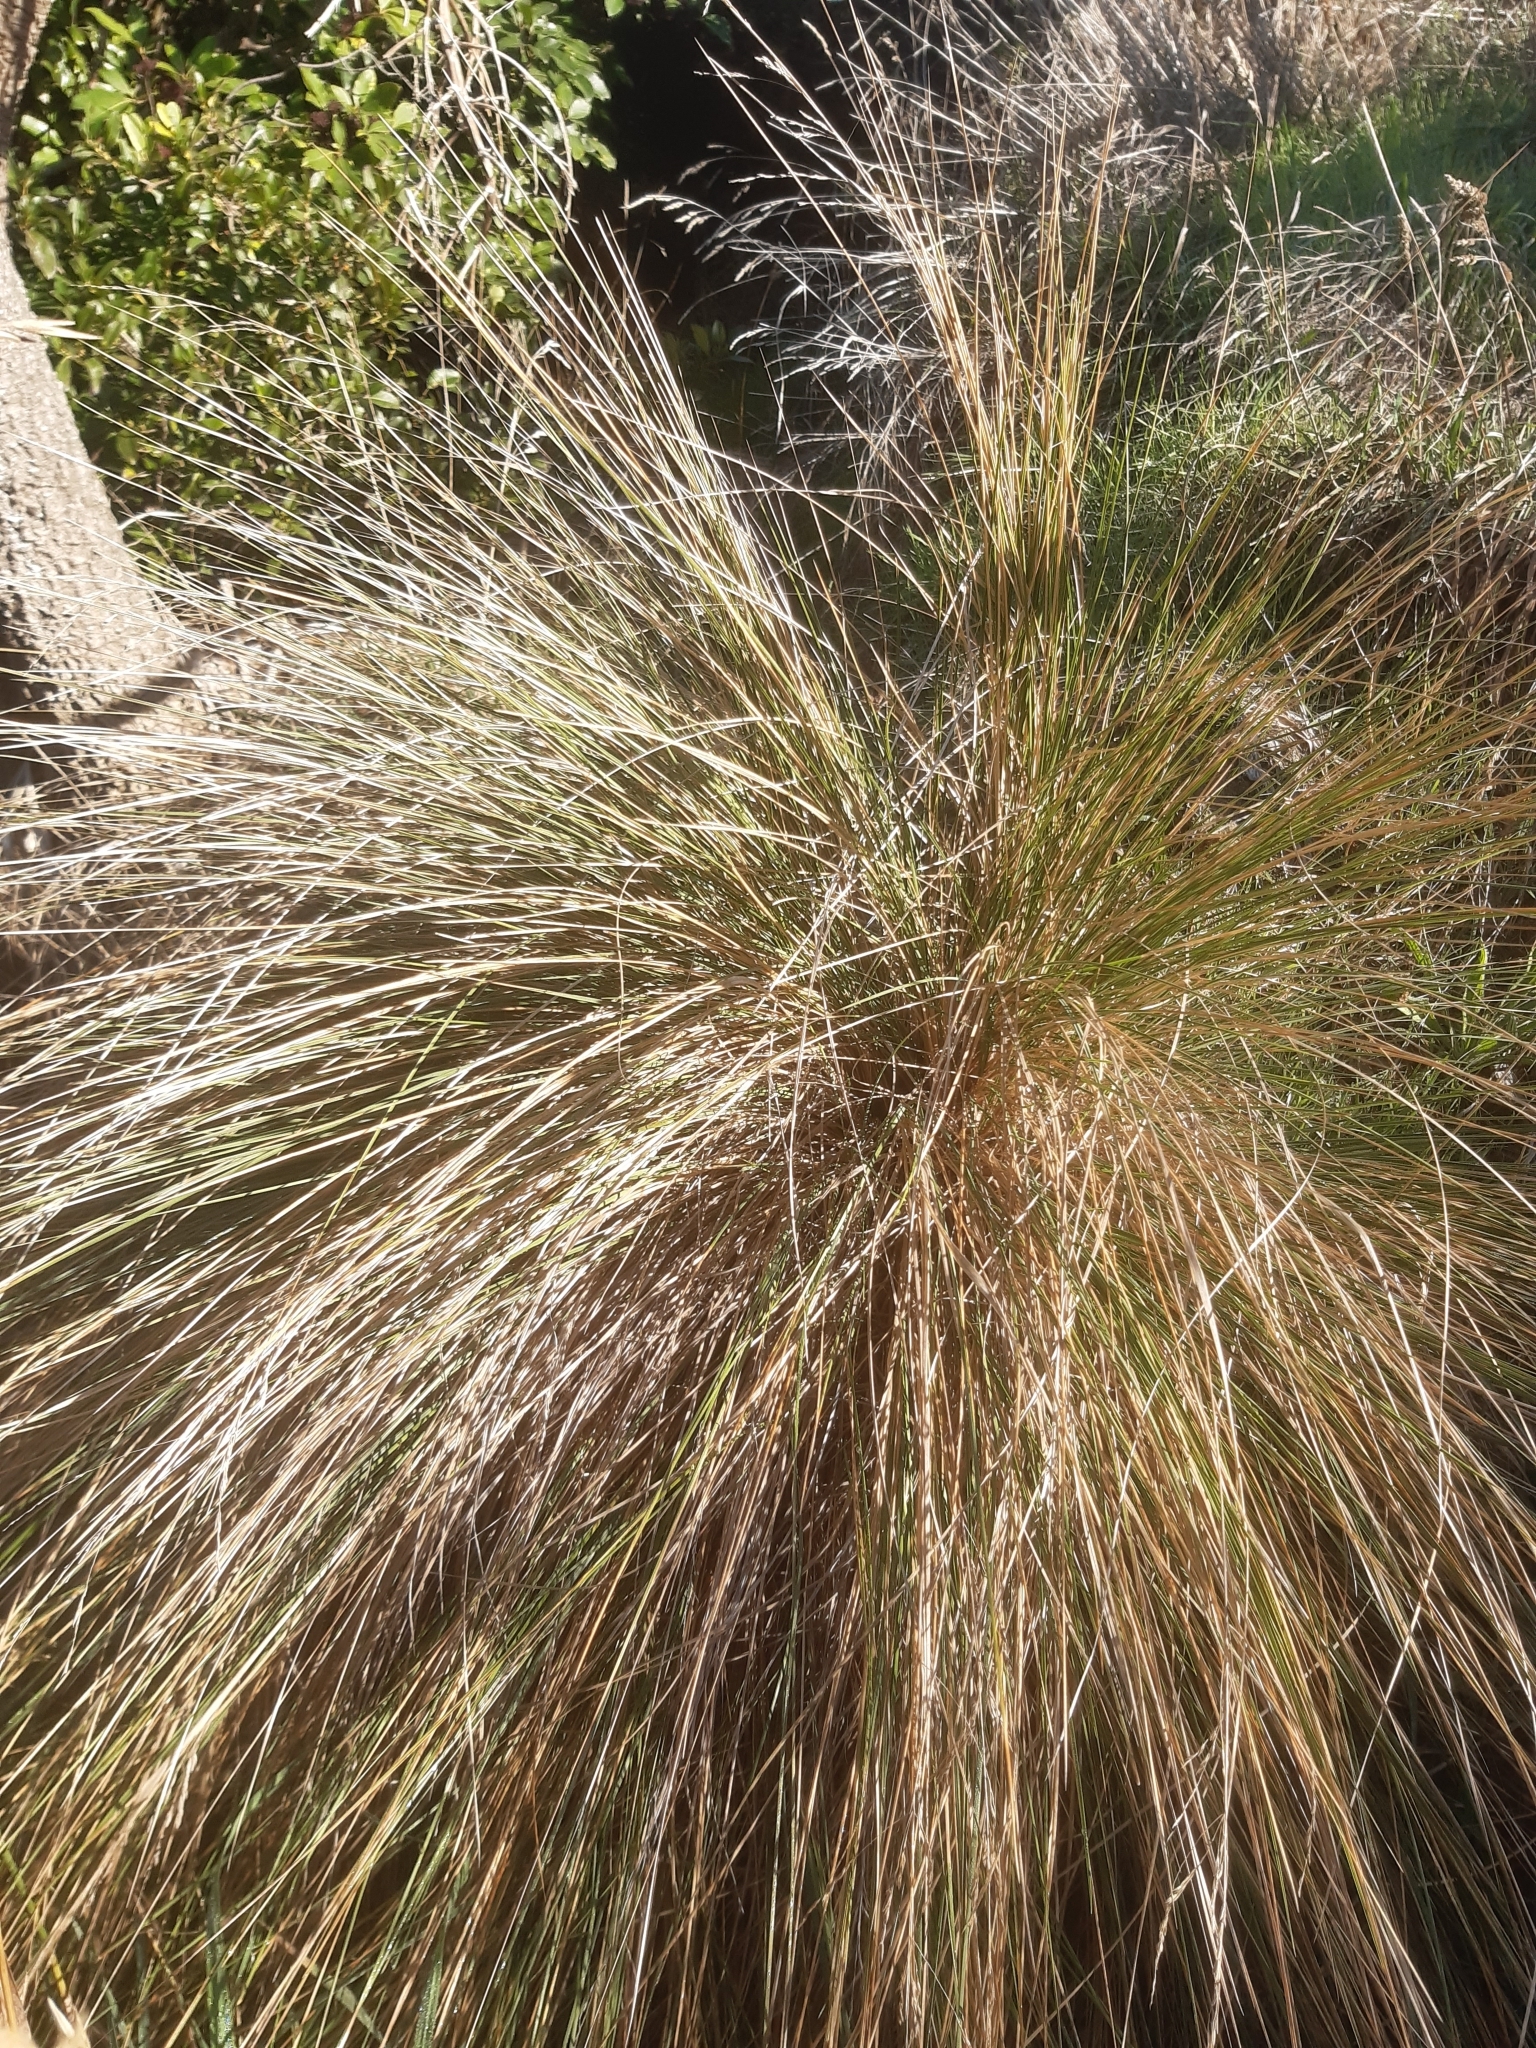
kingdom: Plantae
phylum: Tracheophyta
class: Liliopsida
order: Poales
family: Poaceae
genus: Poa
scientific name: Poa cita
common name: Silver tussock
